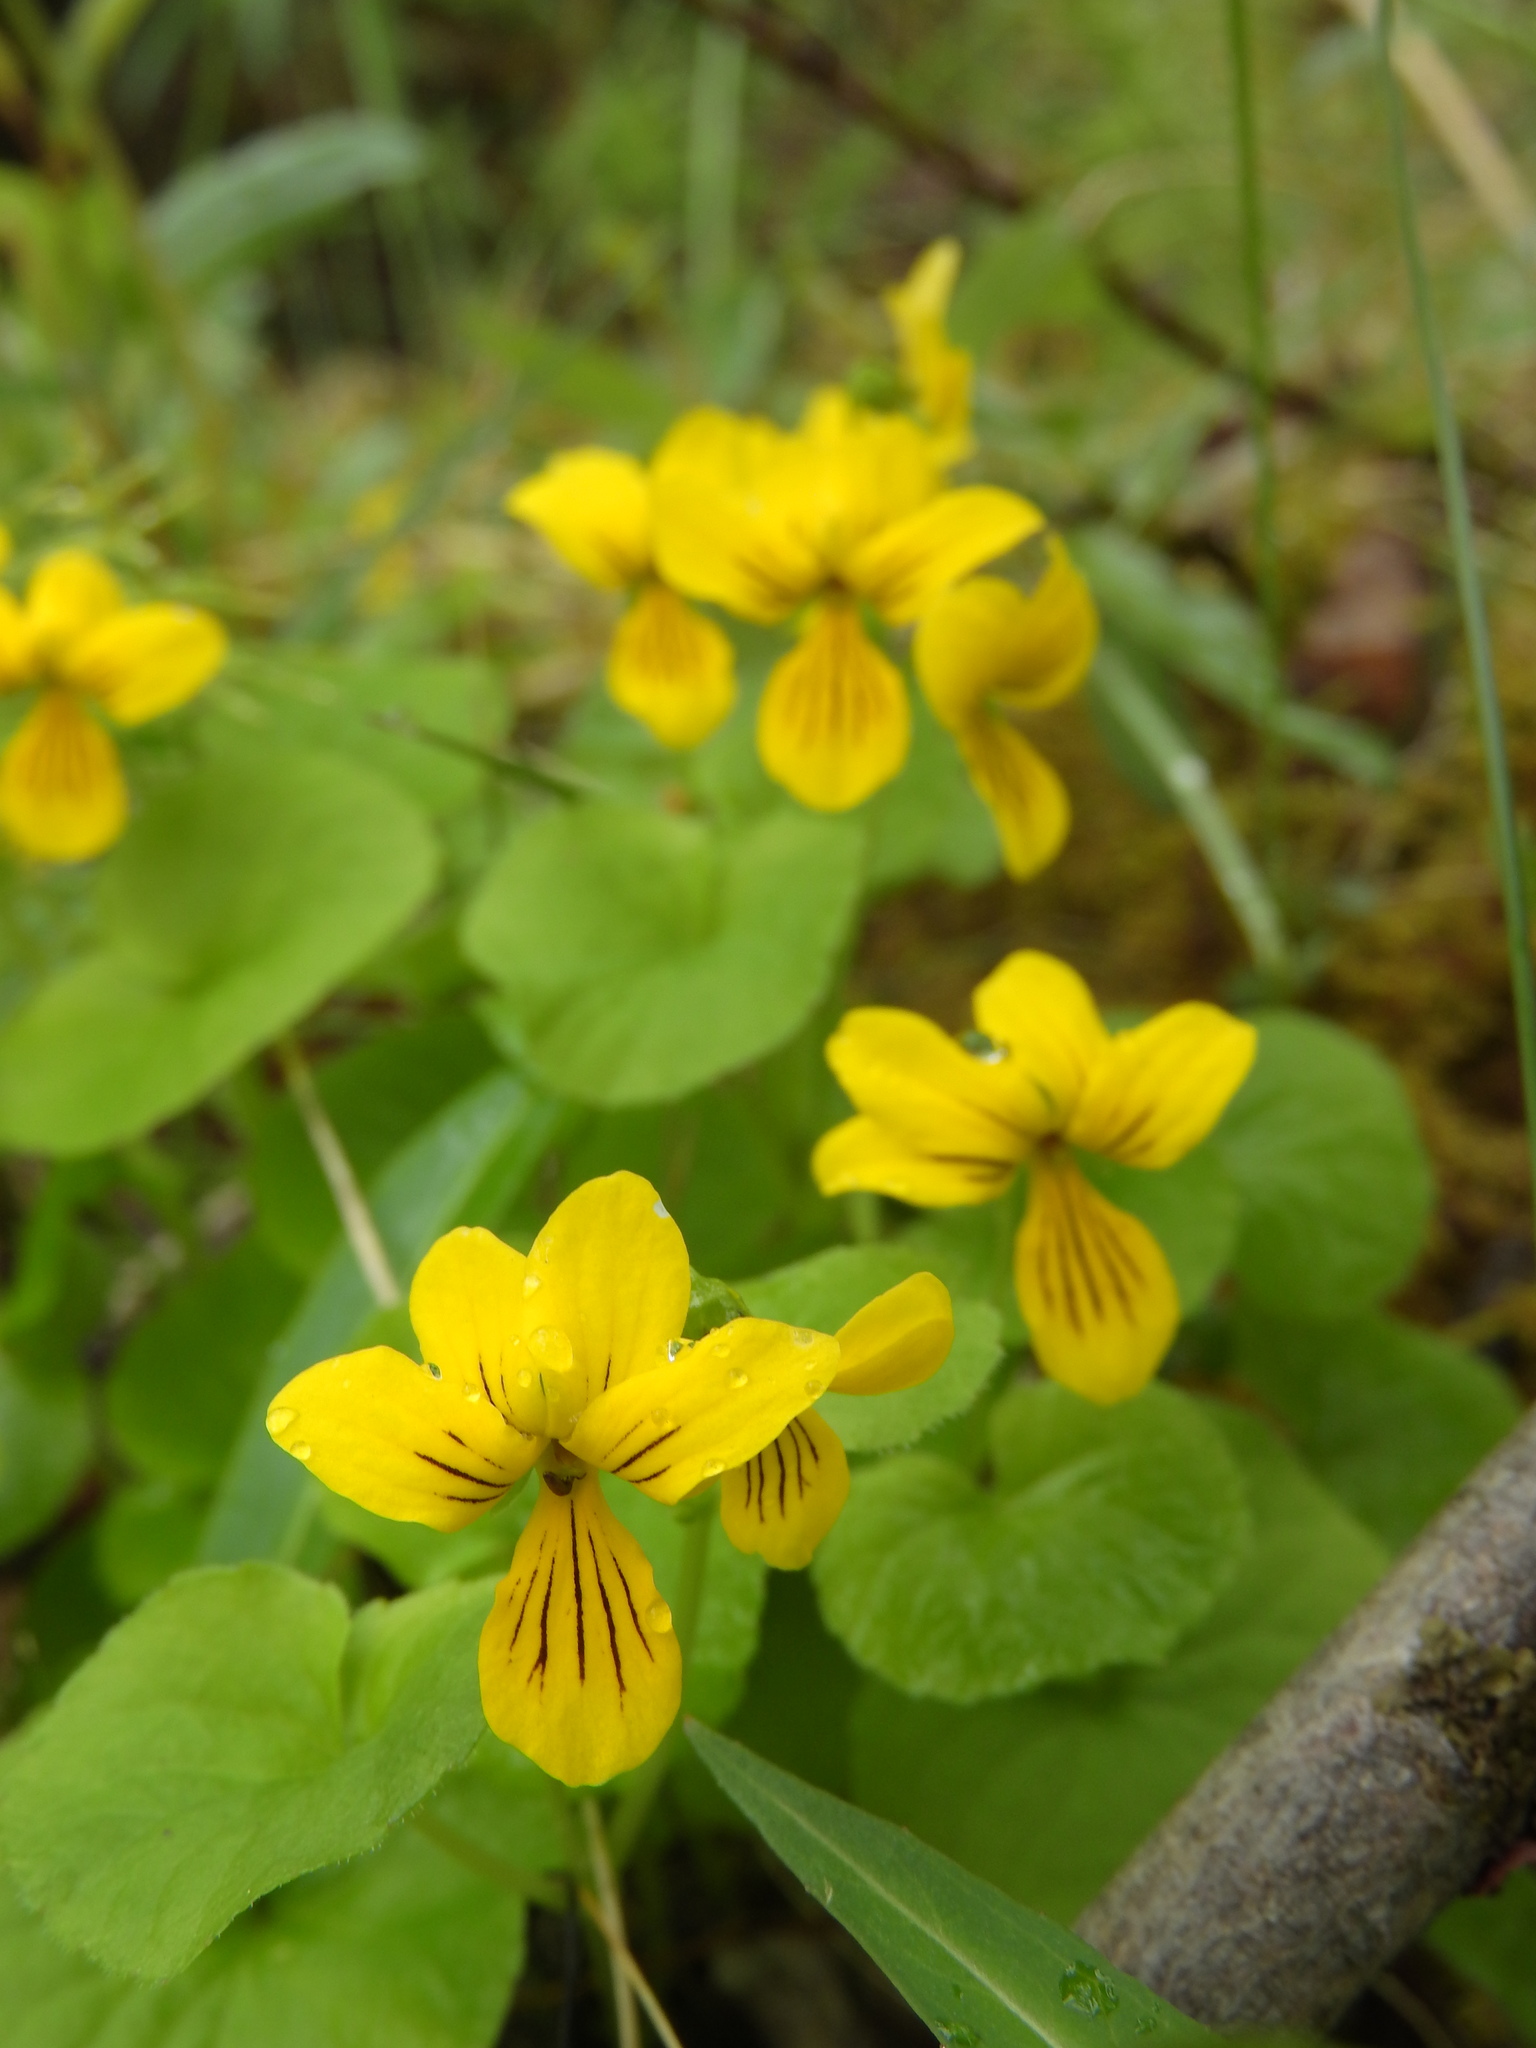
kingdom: Plantae
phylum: Tracheophyta
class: Magnoliopsida
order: Malpighiales
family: Violaceae
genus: Viola
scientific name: Viola biflora
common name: Alpine yellow violet
